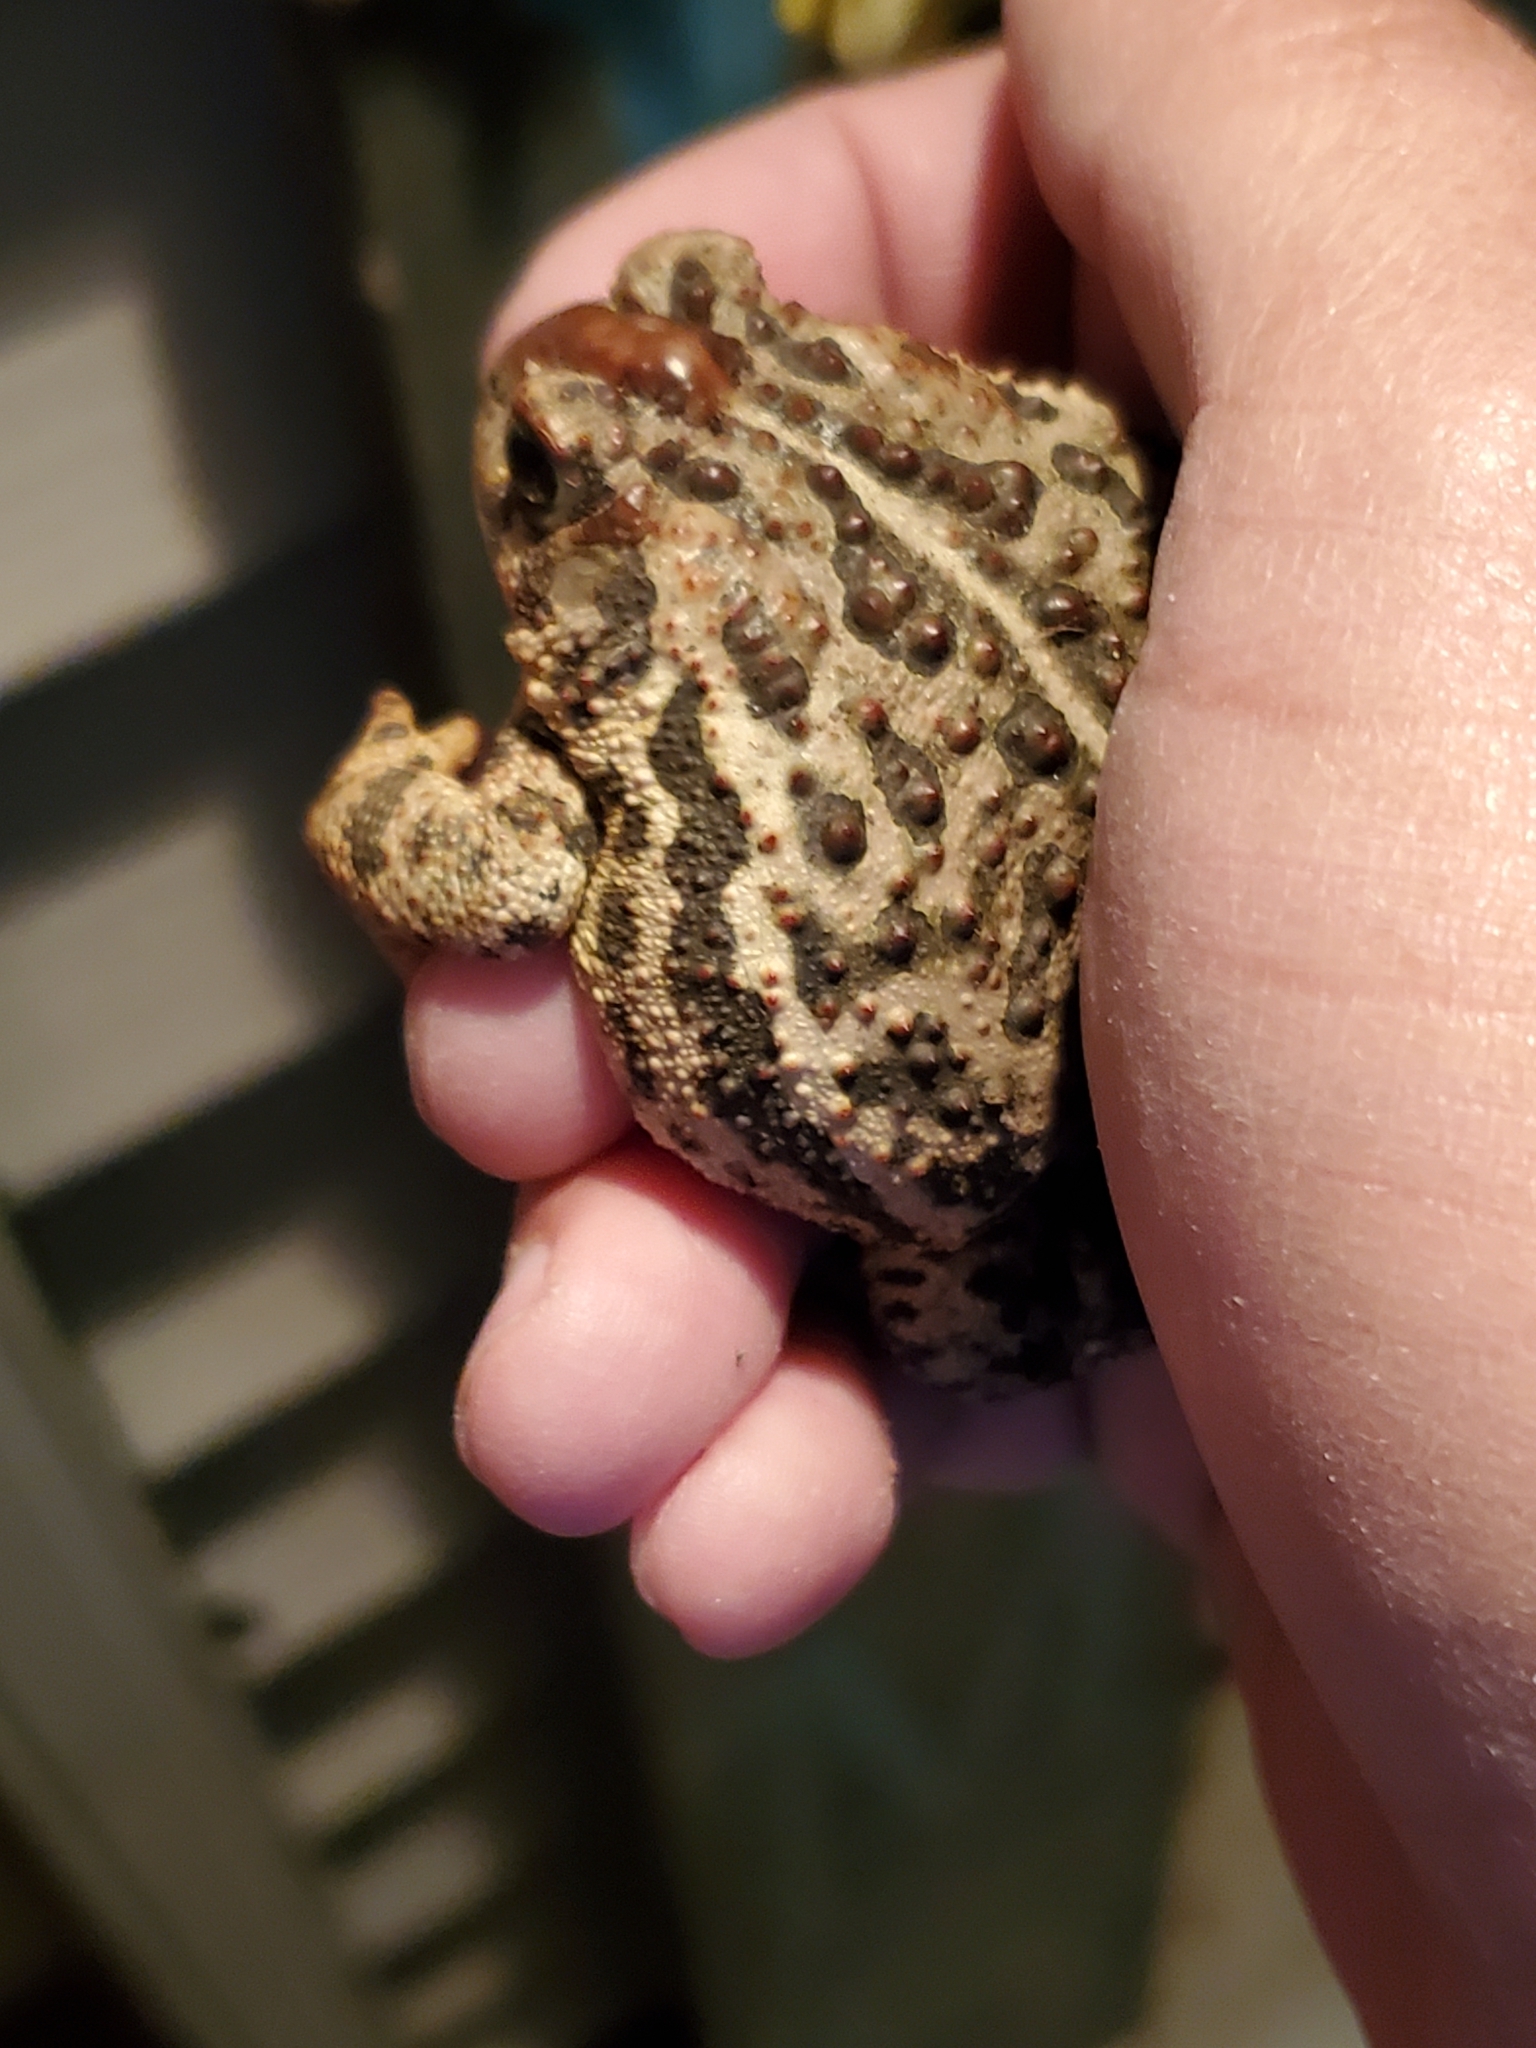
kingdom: Animalia
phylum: Chordata
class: Amphibia
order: Anura
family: Bufonidae
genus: Anaxyrus
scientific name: Anaxyrus hemiophrys
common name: Canadian toad
